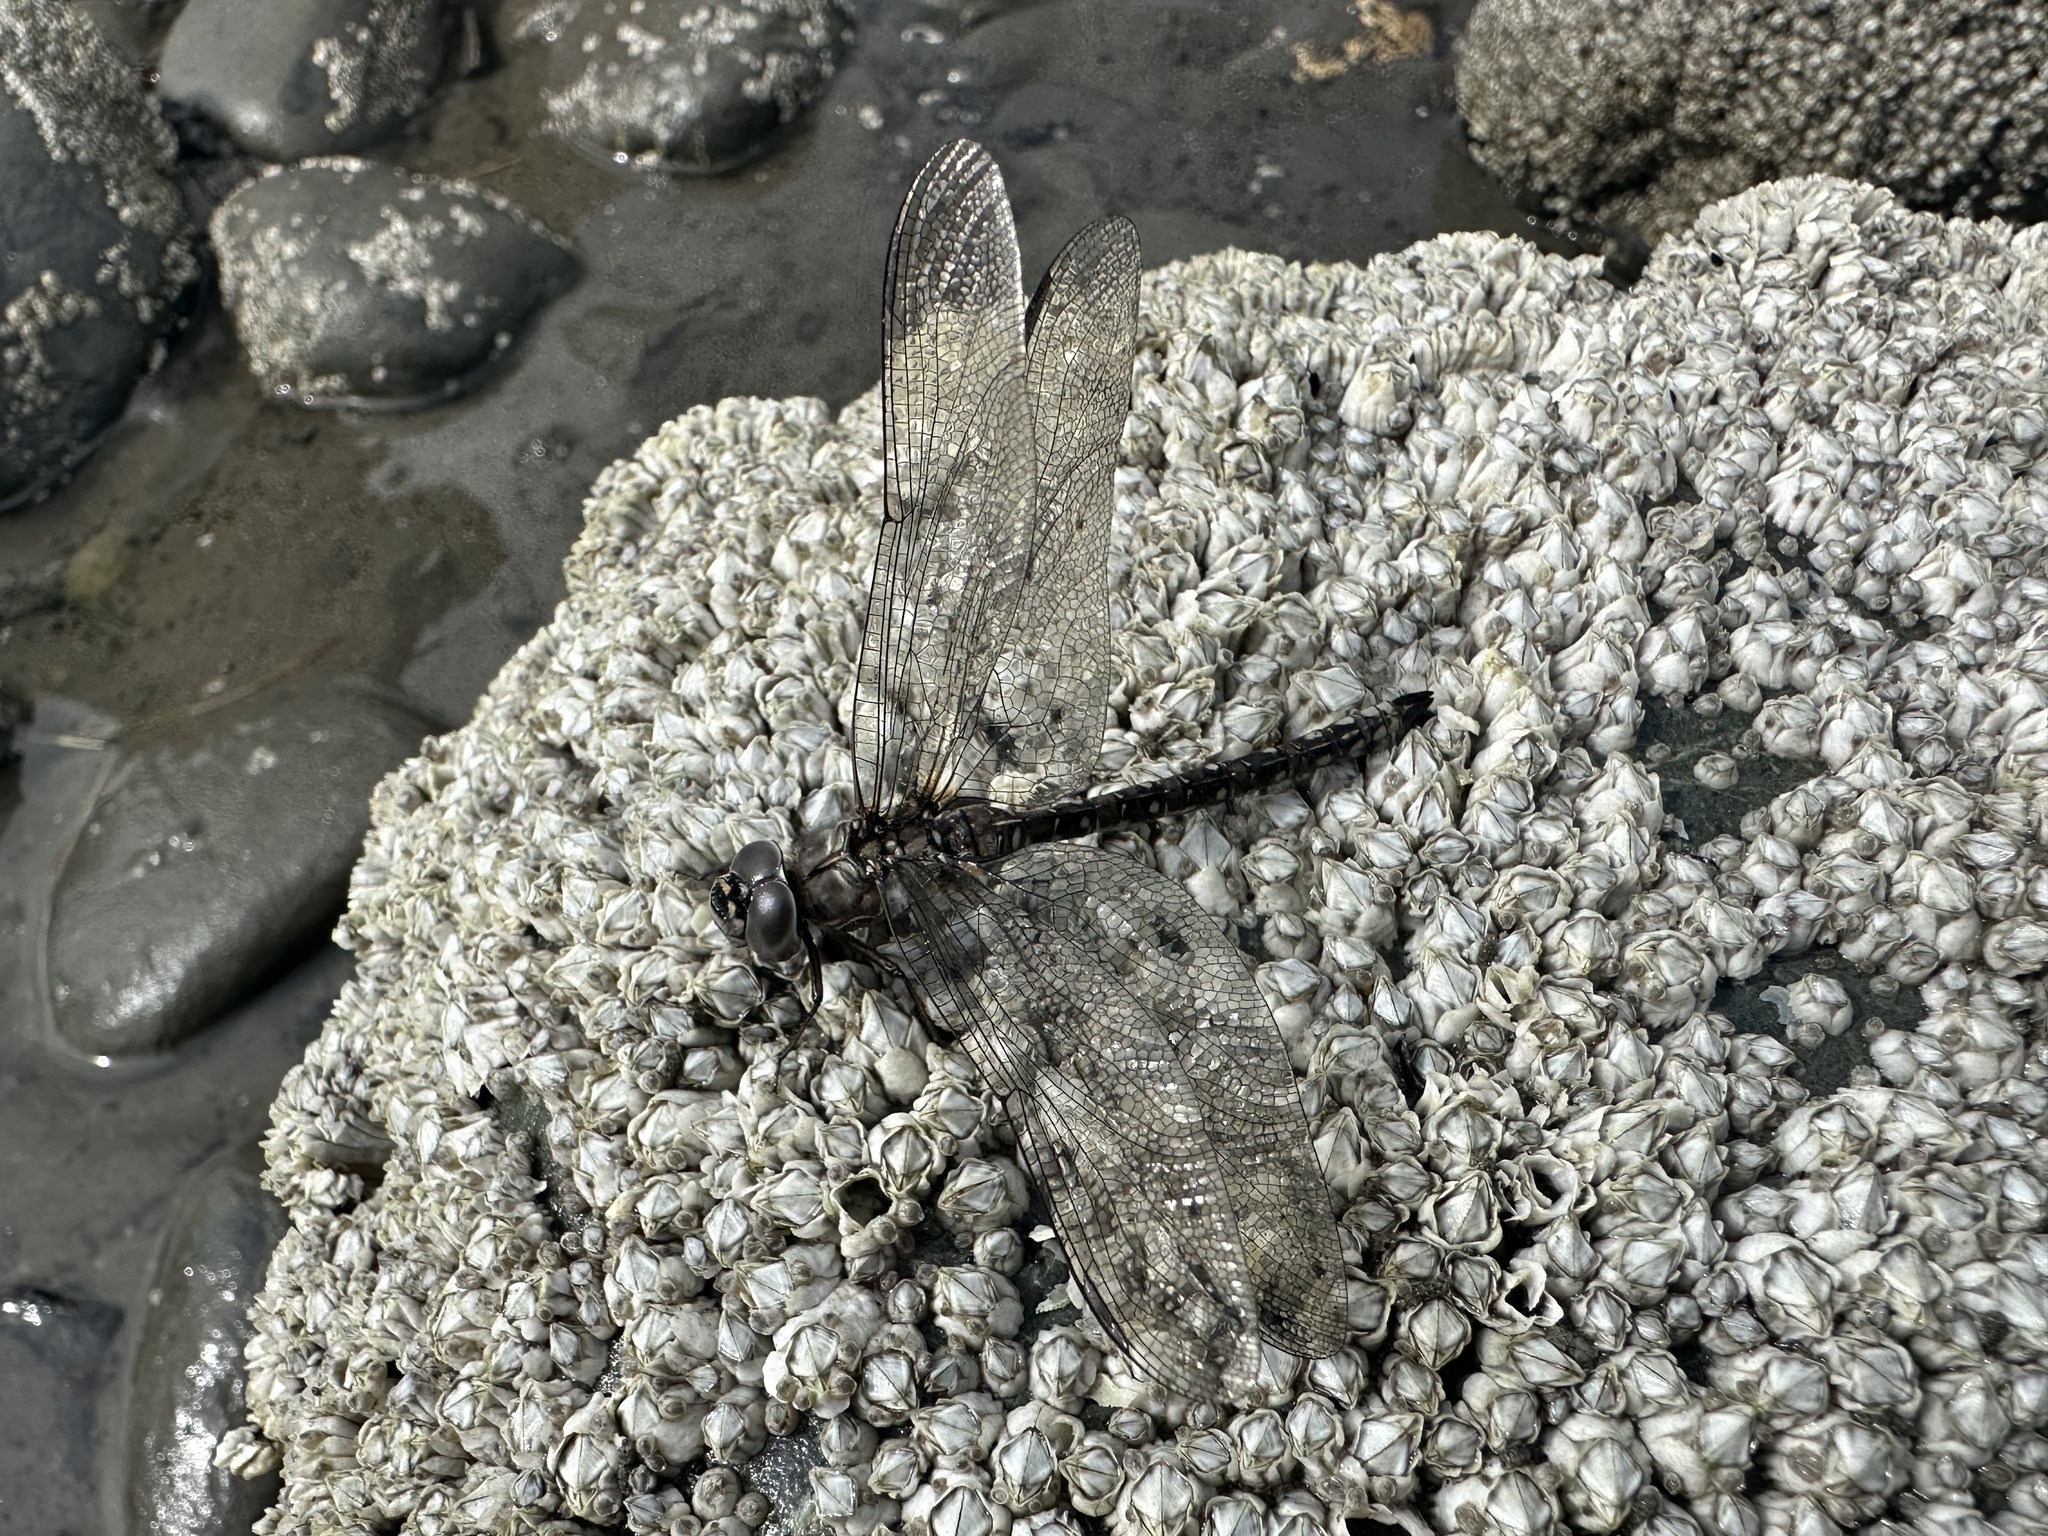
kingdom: Animalia
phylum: Arthropoda
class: Insecta
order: Odonata
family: Aeshnidae
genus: Aeshna
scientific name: Aeshna sitchensis
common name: Zigzag darner
